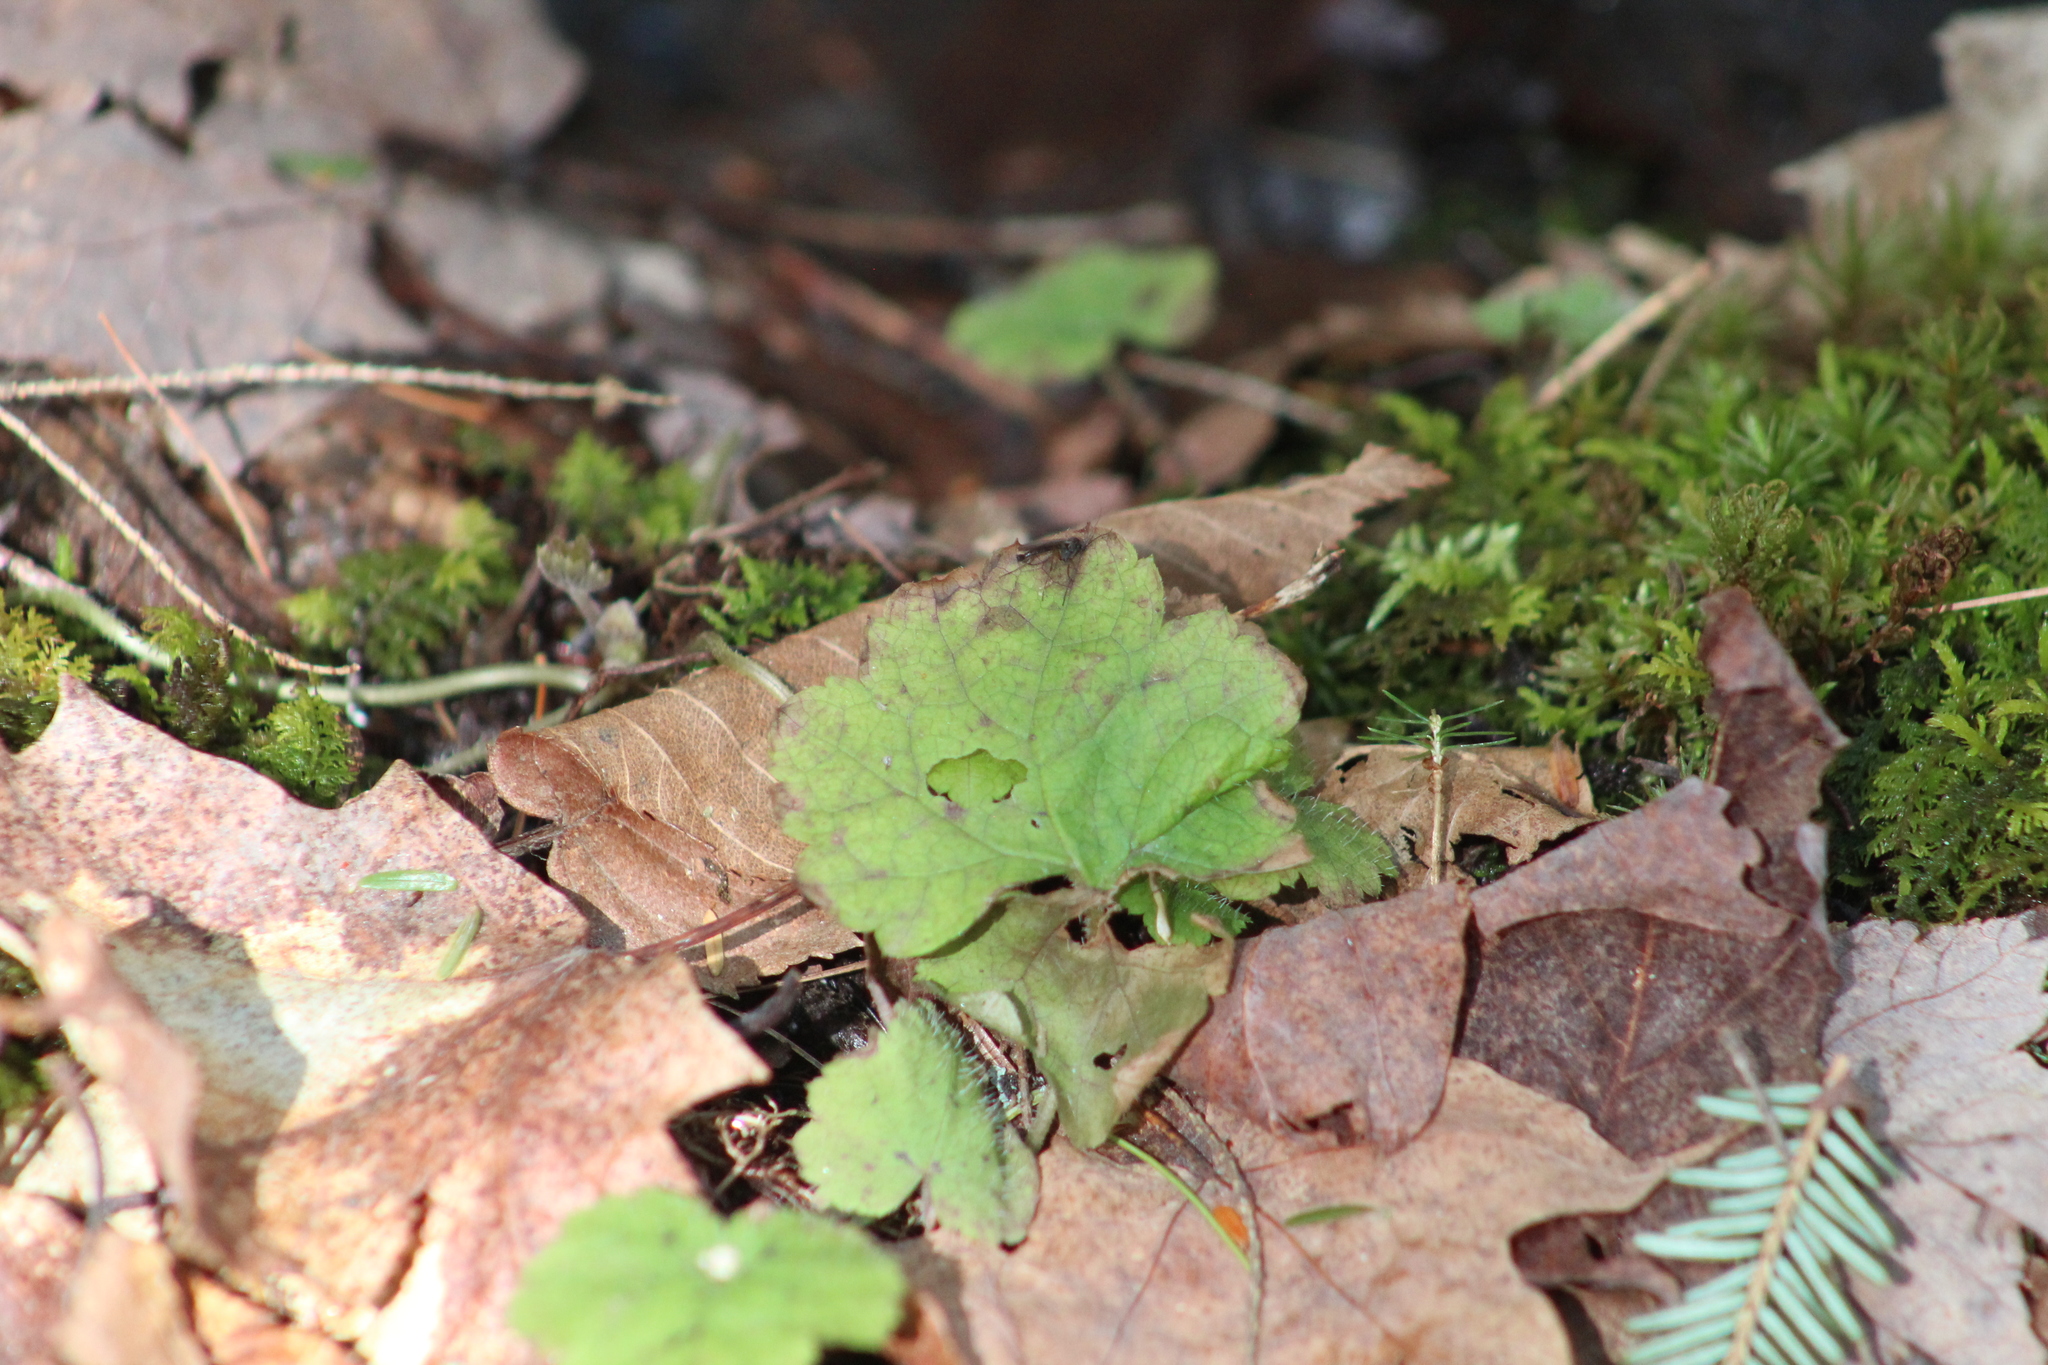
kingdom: Plantae
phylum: Tracheophyta
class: Magnoliopsida
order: Saxifragales
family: Saxifragaceae
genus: Tiarella
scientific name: Tiarella stolonifera
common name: Stoloniferous foamflower
